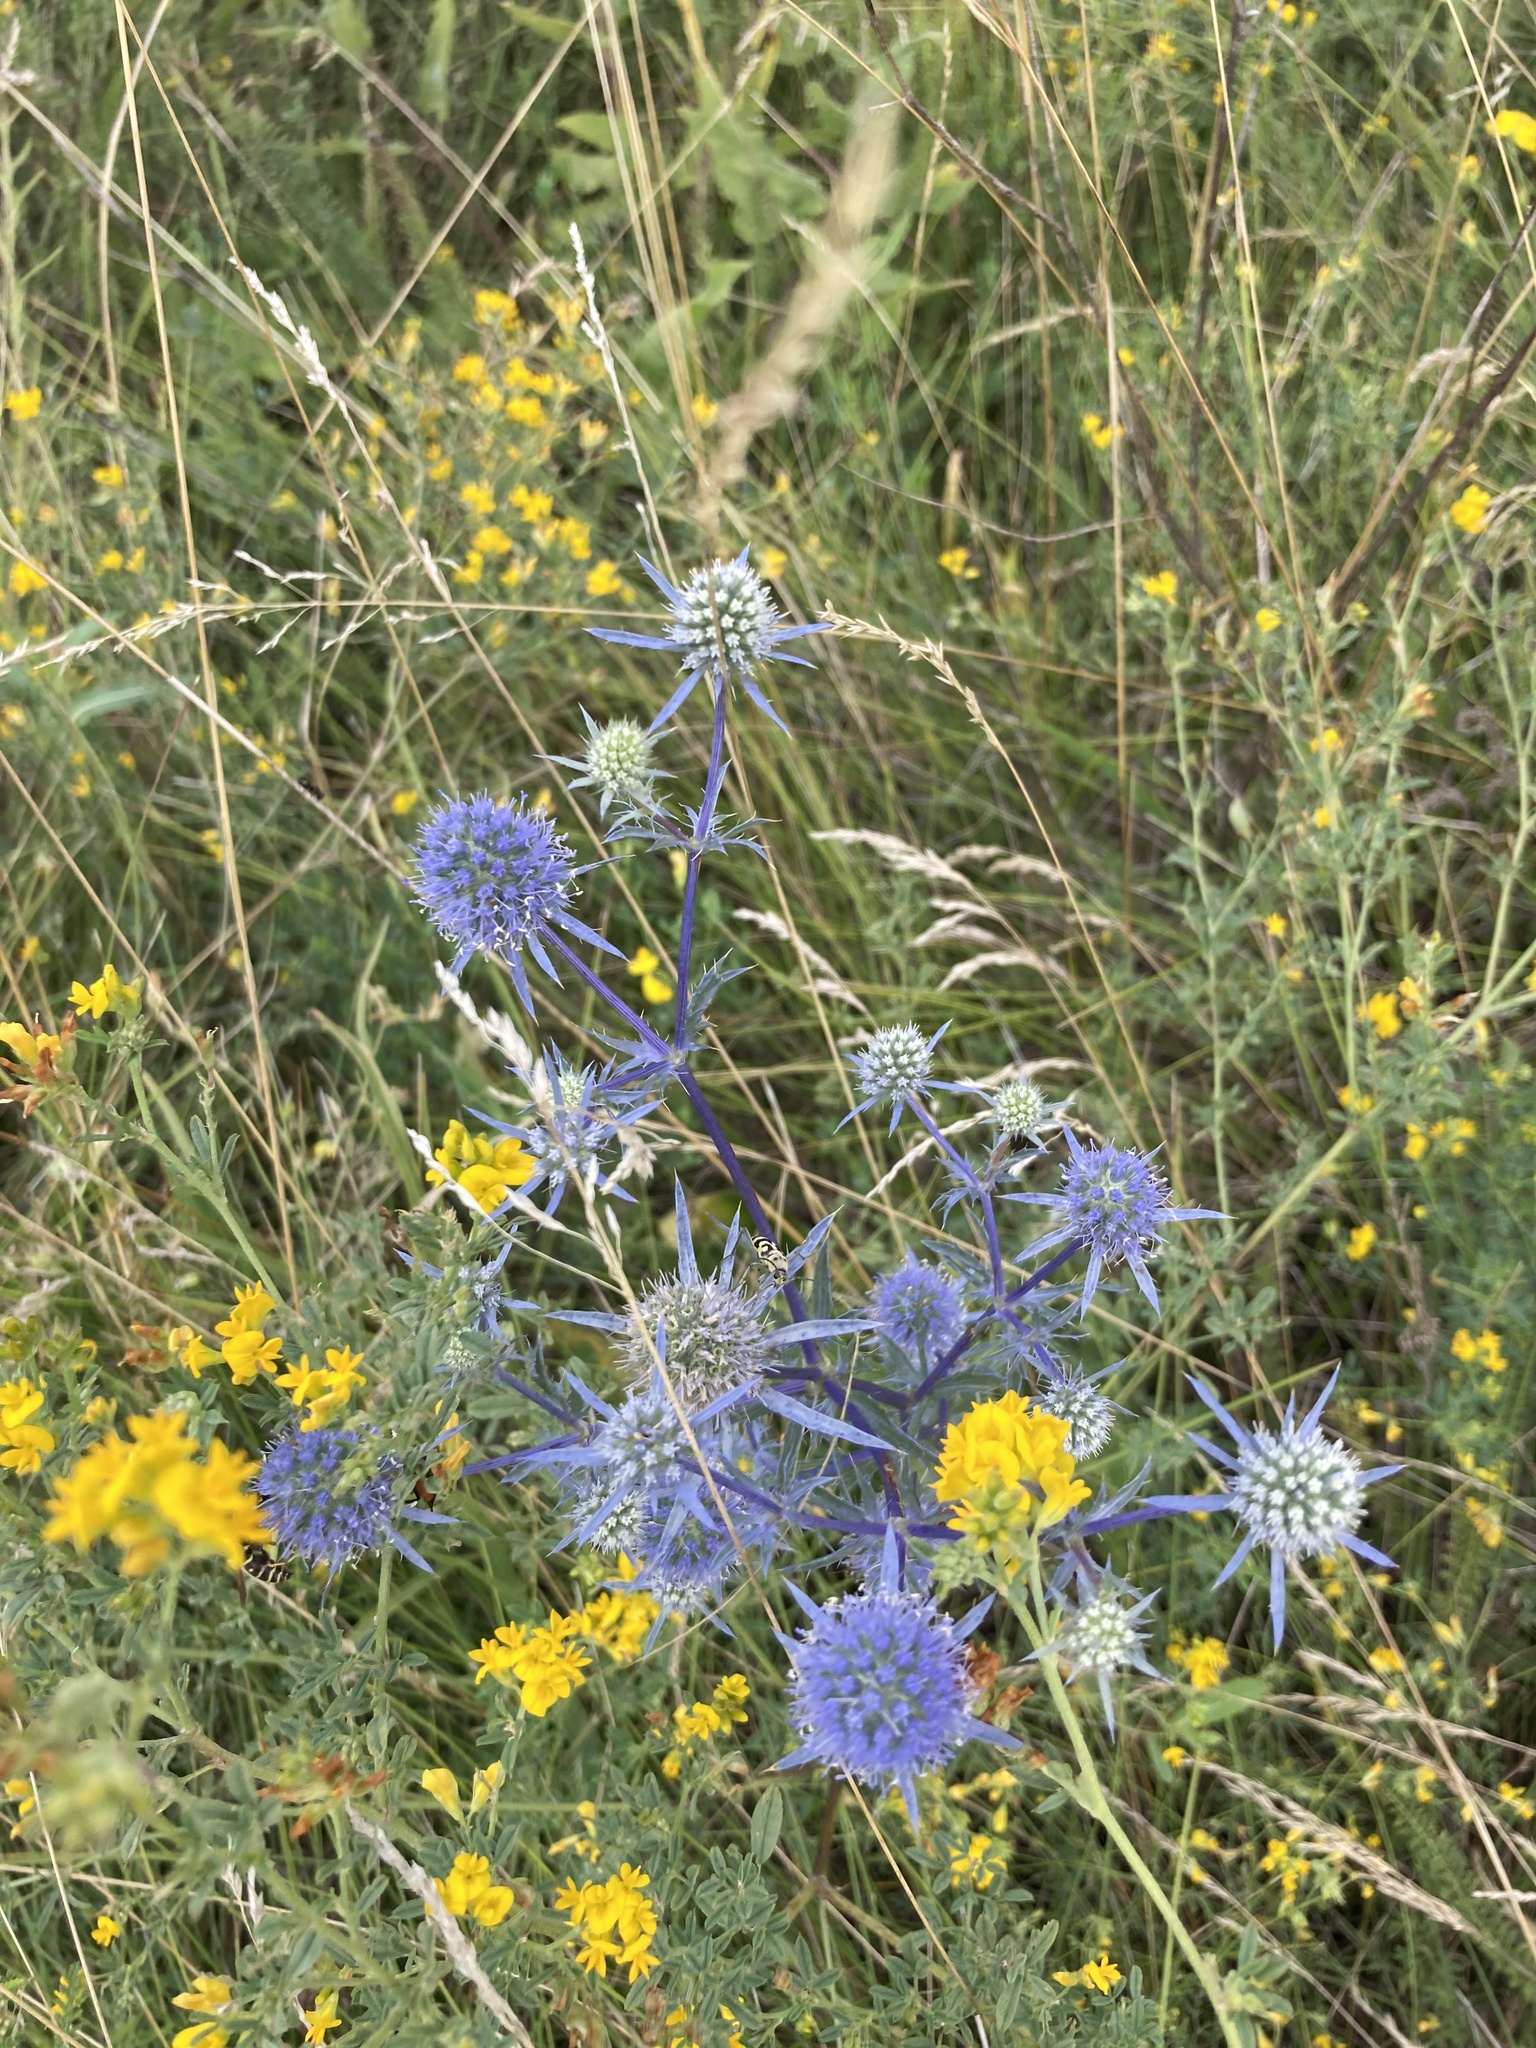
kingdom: Plantae
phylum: Tracheophyta
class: Magnoliopsida
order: Apiales
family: Apiaceae
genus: Eryngium
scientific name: Eryngium planum
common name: Blue eryngo
